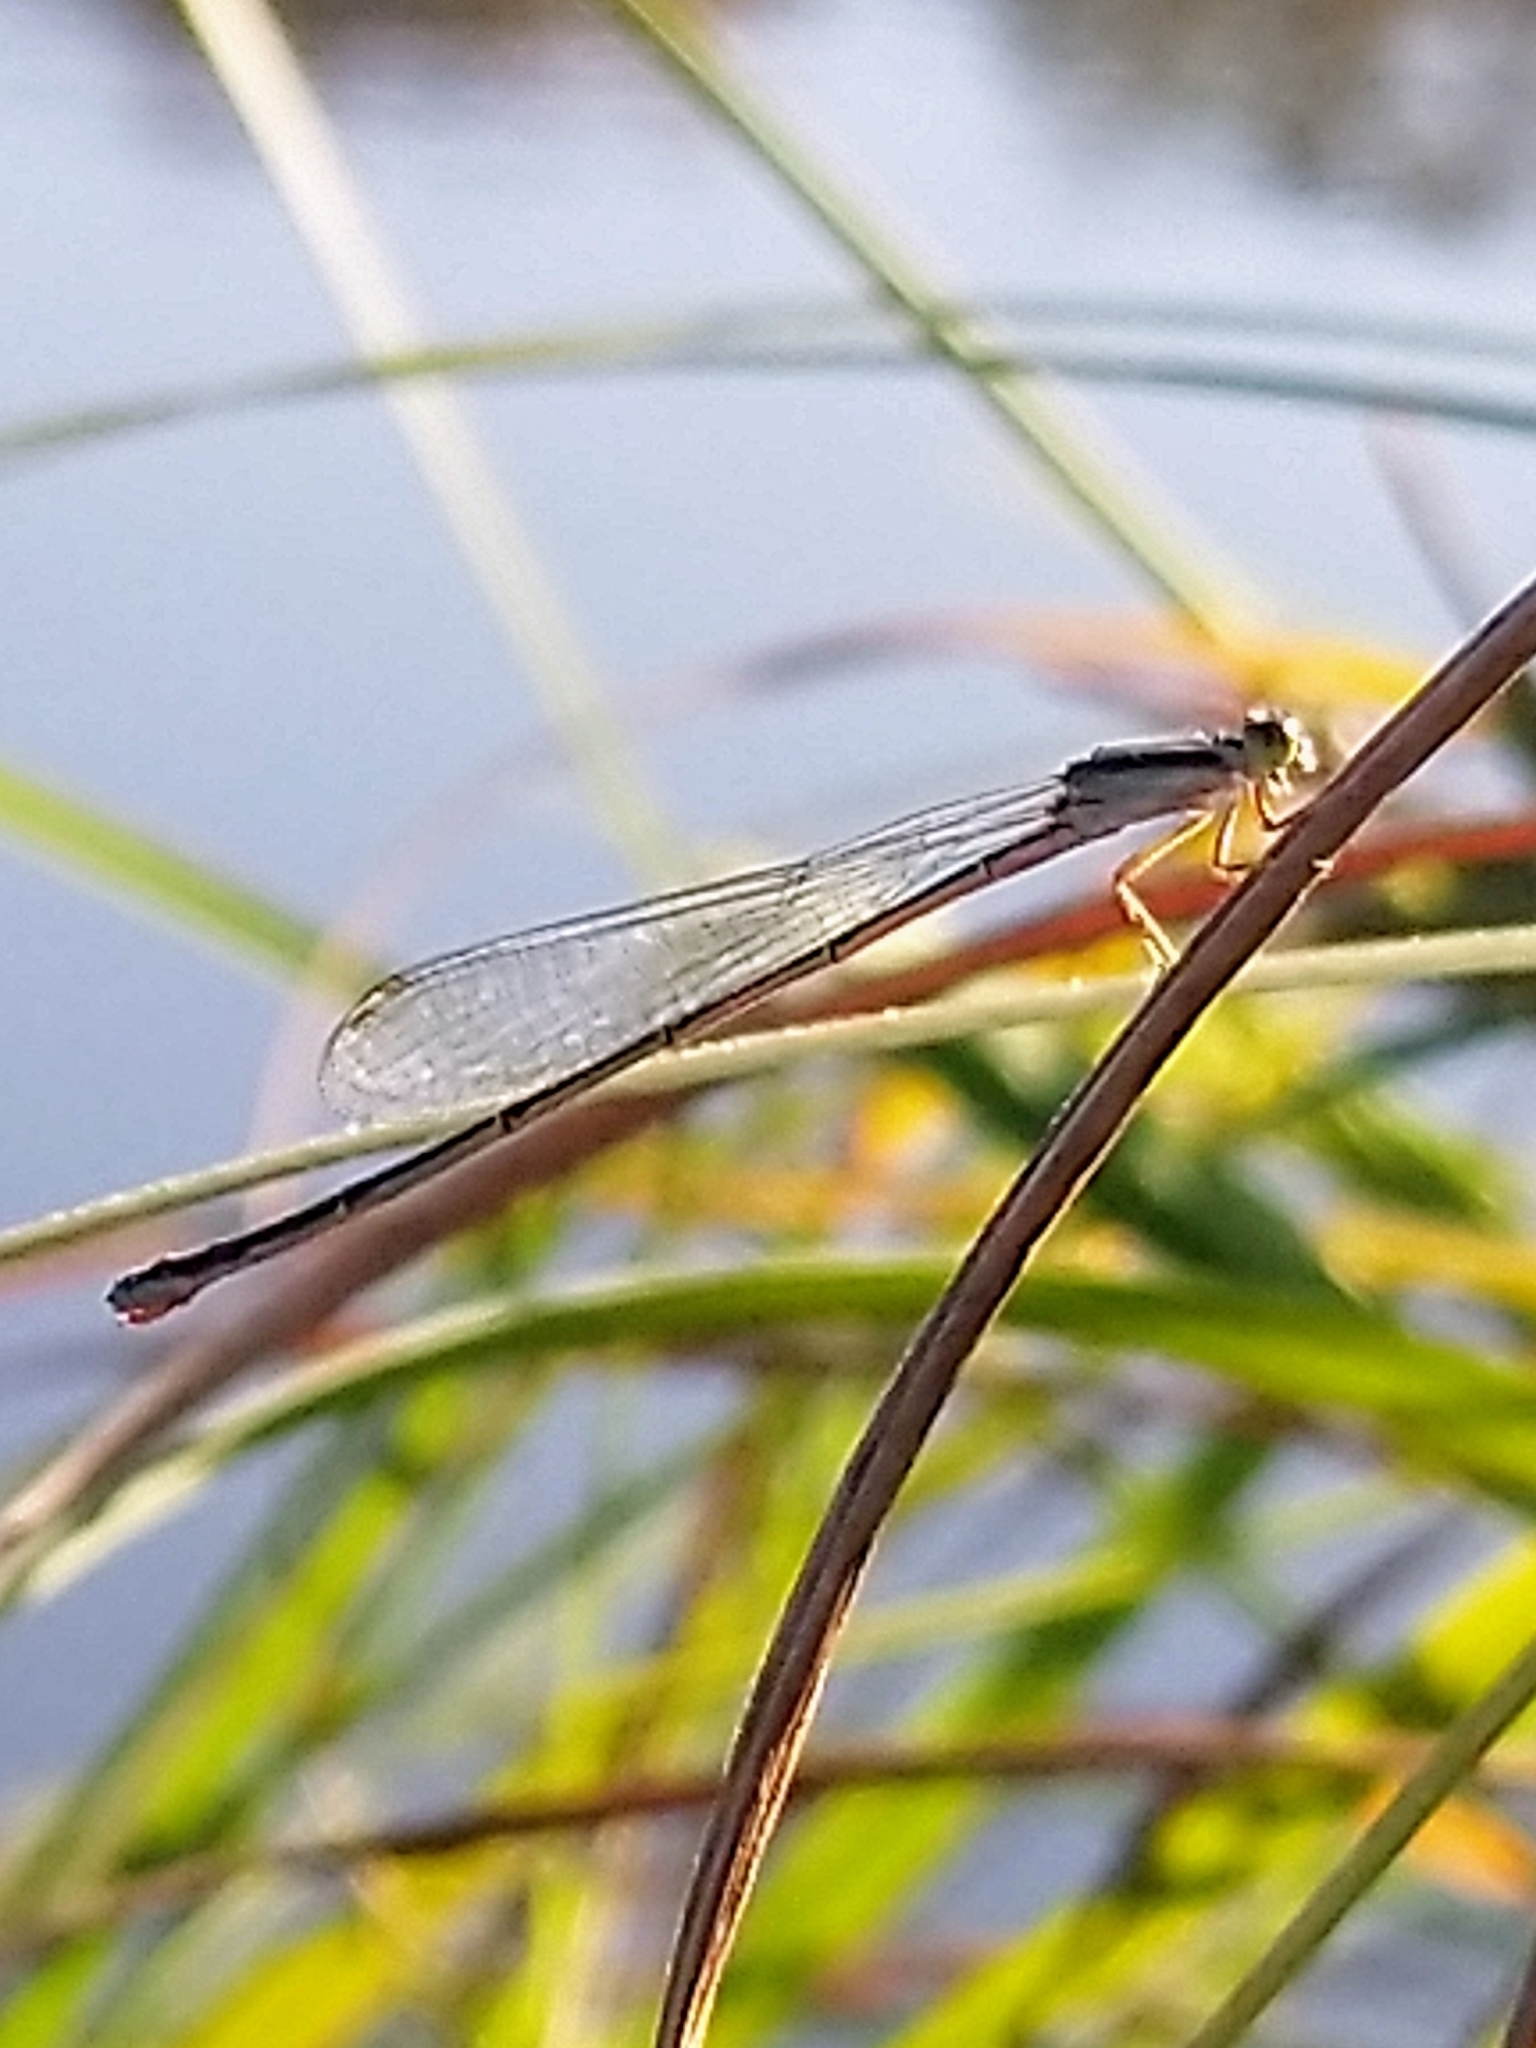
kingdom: Animalia
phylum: Arthropoda
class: Insecta
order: Odonata
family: Coenagrionidae
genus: Aciagrion
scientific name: Aciagrion occidentale
